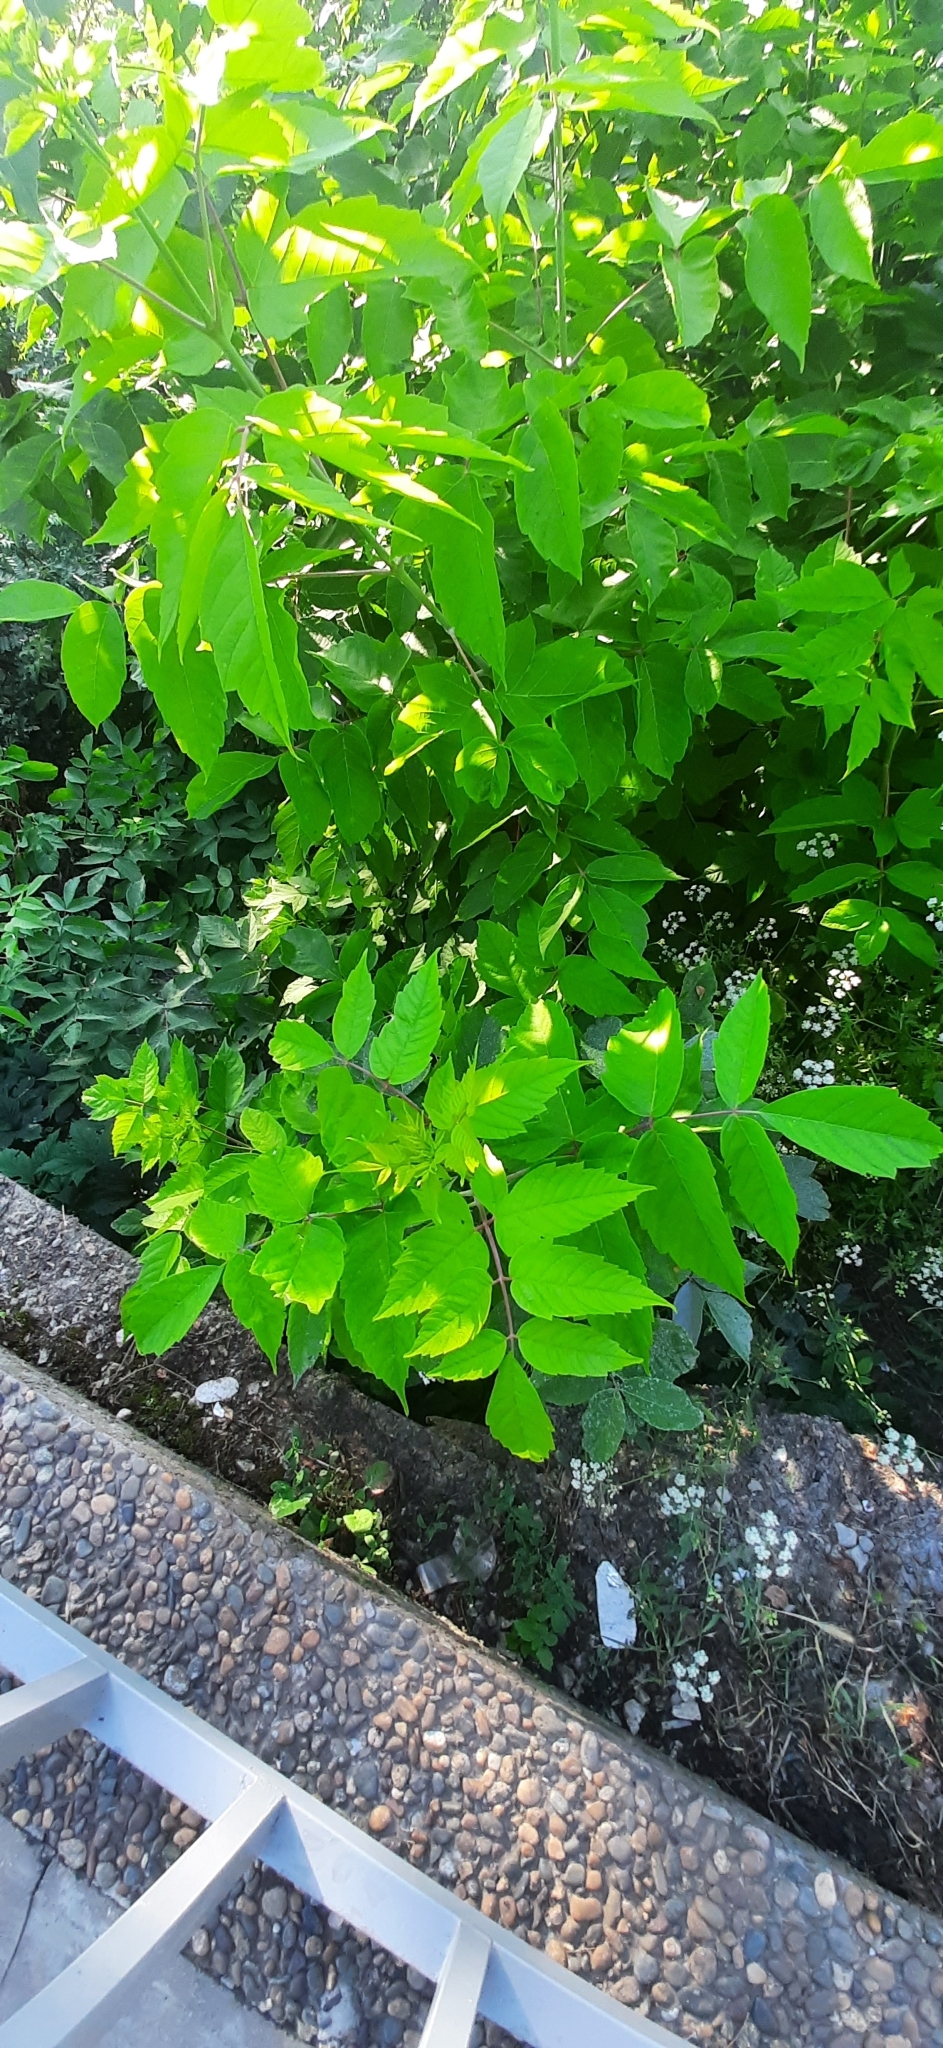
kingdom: Plantae
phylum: Tracheophyta
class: Magnoliopsida
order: Sapindales
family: Sapindaceae
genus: Acer
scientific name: Acer negundo
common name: Ashleaf maple
